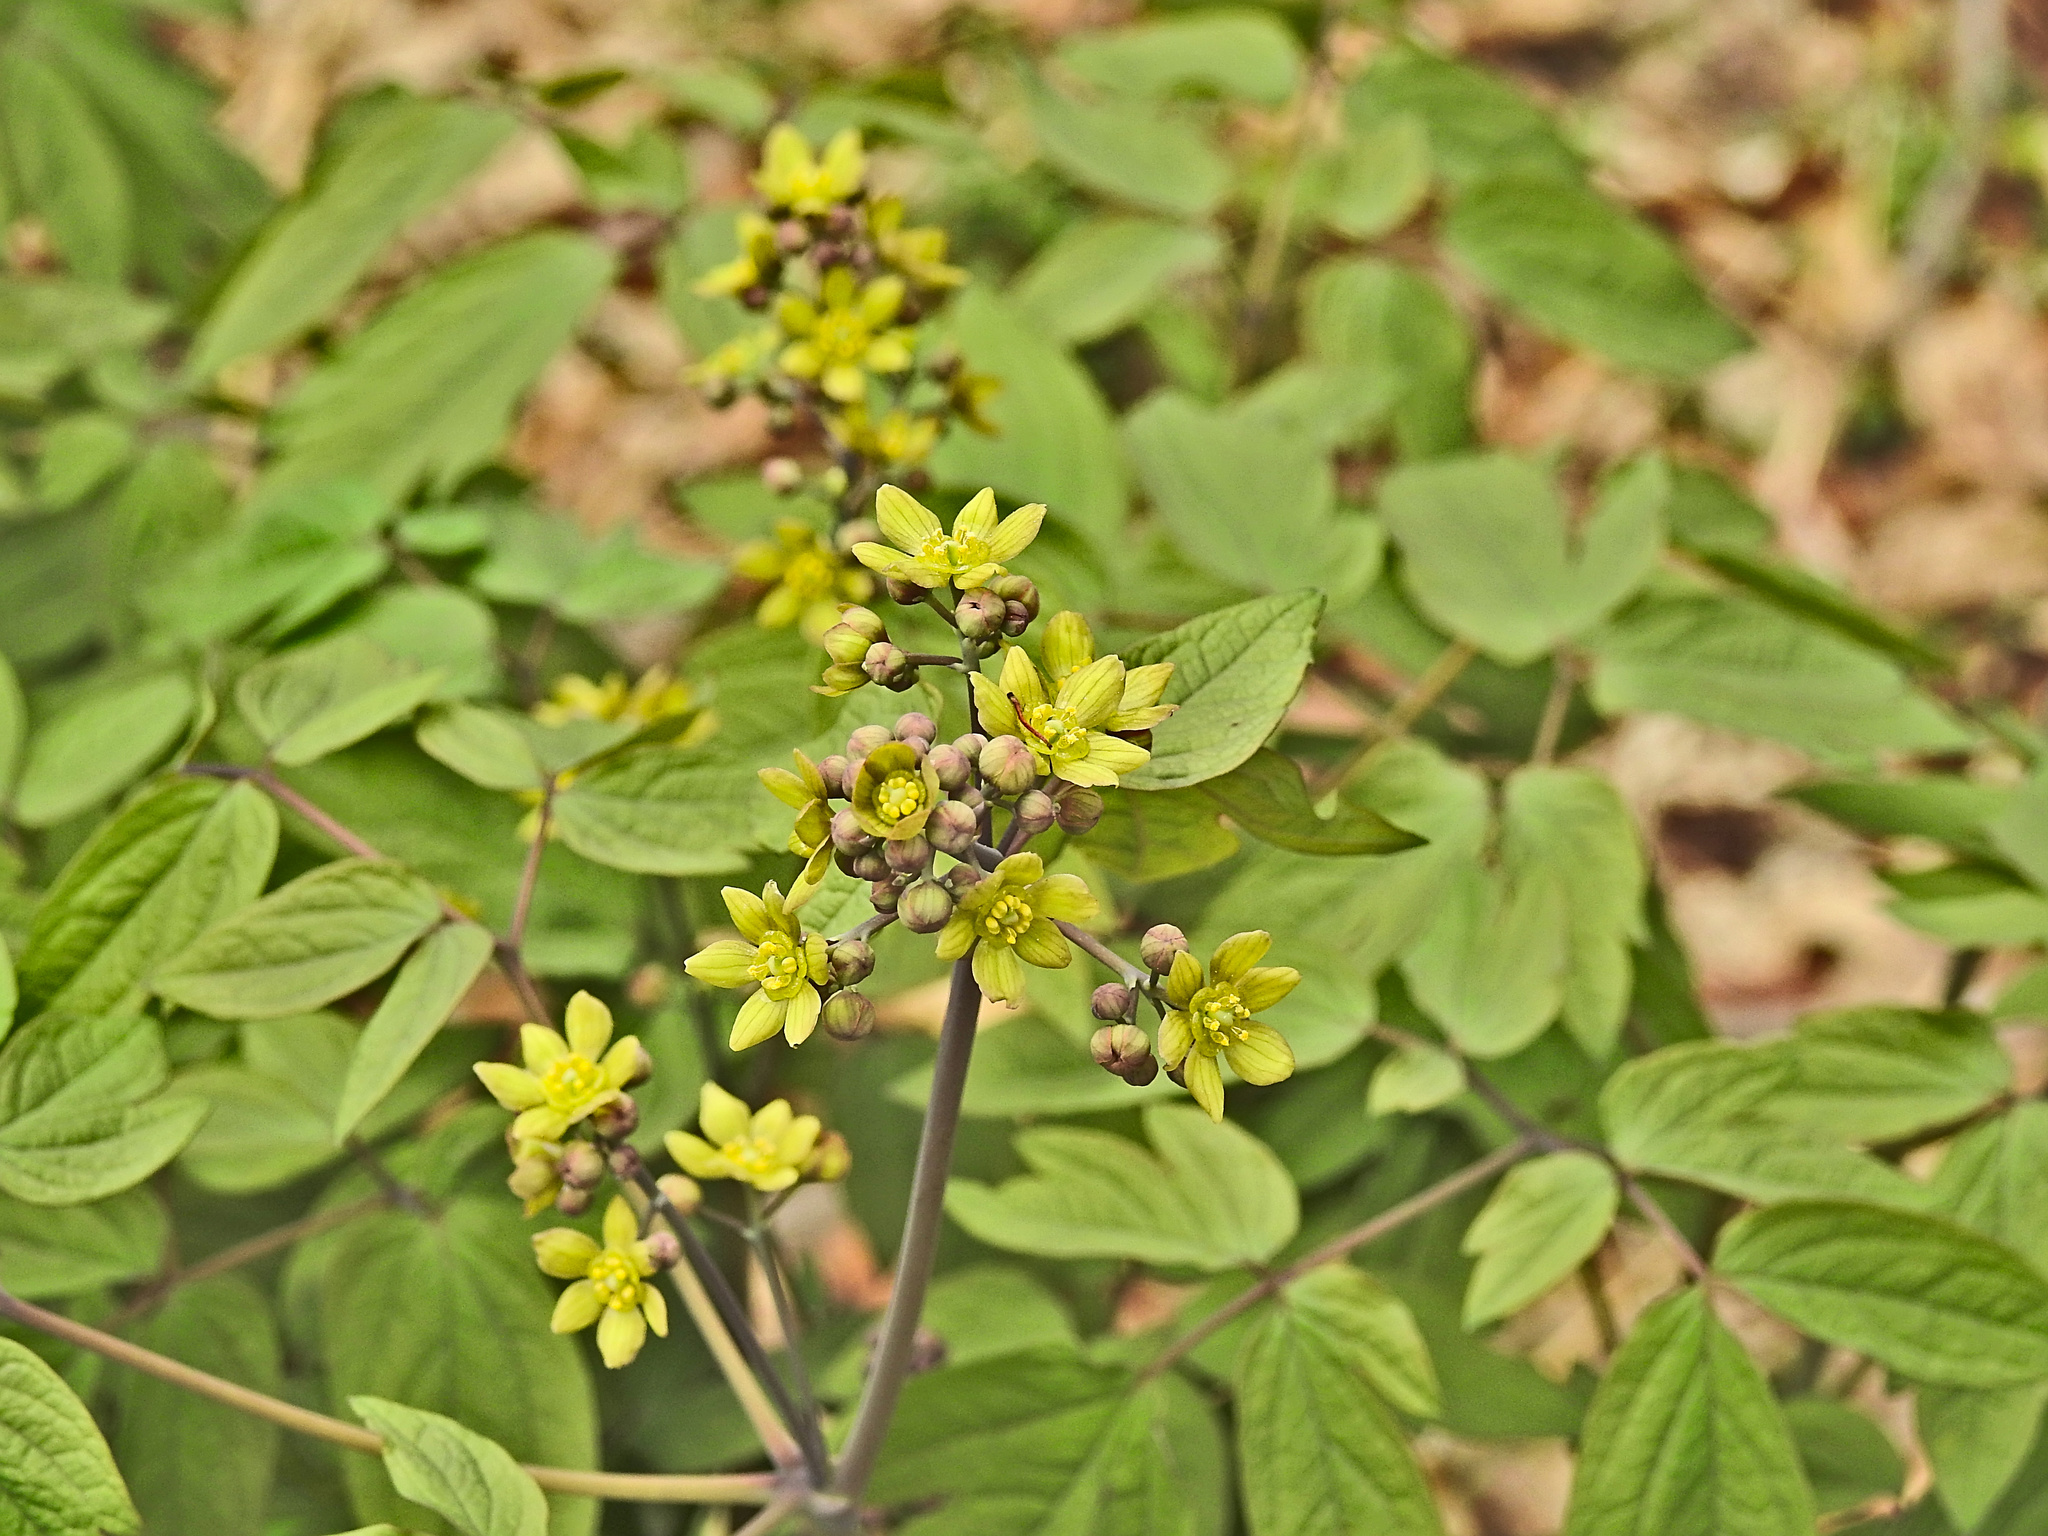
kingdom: Plantae
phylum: Tracheophyta
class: Magnoliopsida
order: Ranunculales
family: Berberidaceae
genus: Caulophyllum
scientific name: Caulophyllum thalictroides
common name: Blue cohosh
